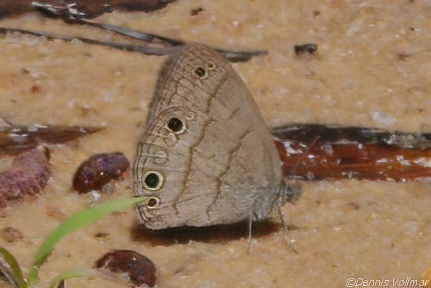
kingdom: Animalia
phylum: Arthropoda
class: Insecta
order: Lepidoptera
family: Nymphalidae
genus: Hermeuptychia
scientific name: Hermeuptychia hermes
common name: Hermes satyr
